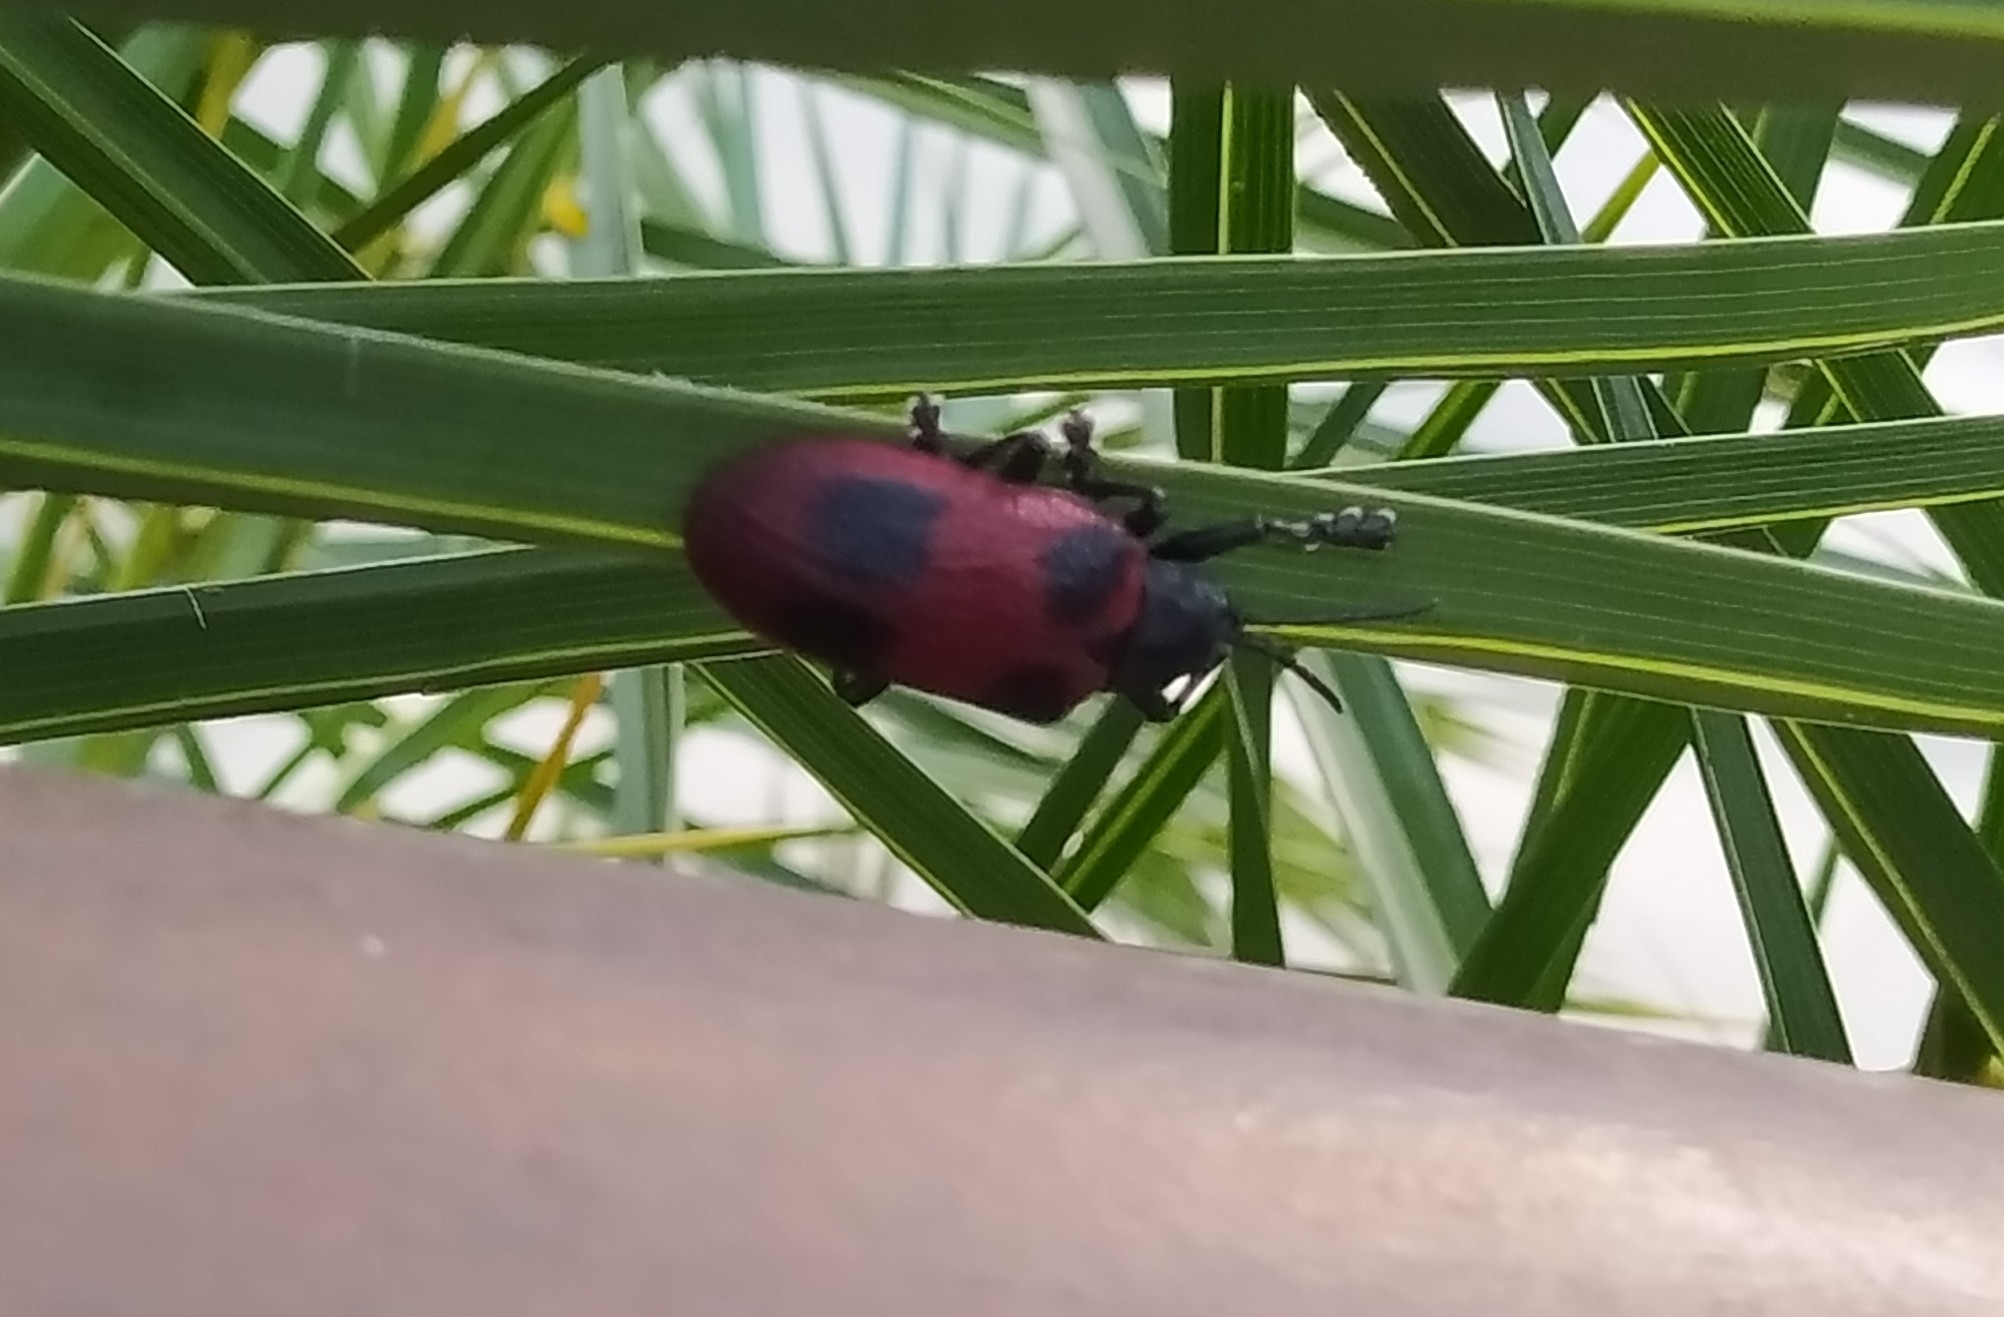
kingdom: Animalia
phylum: Arthropoda
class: Insecta
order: Coleoptera
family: Chrysomelidae
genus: Coraliomela
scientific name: Coraliomela quadrimaculata
